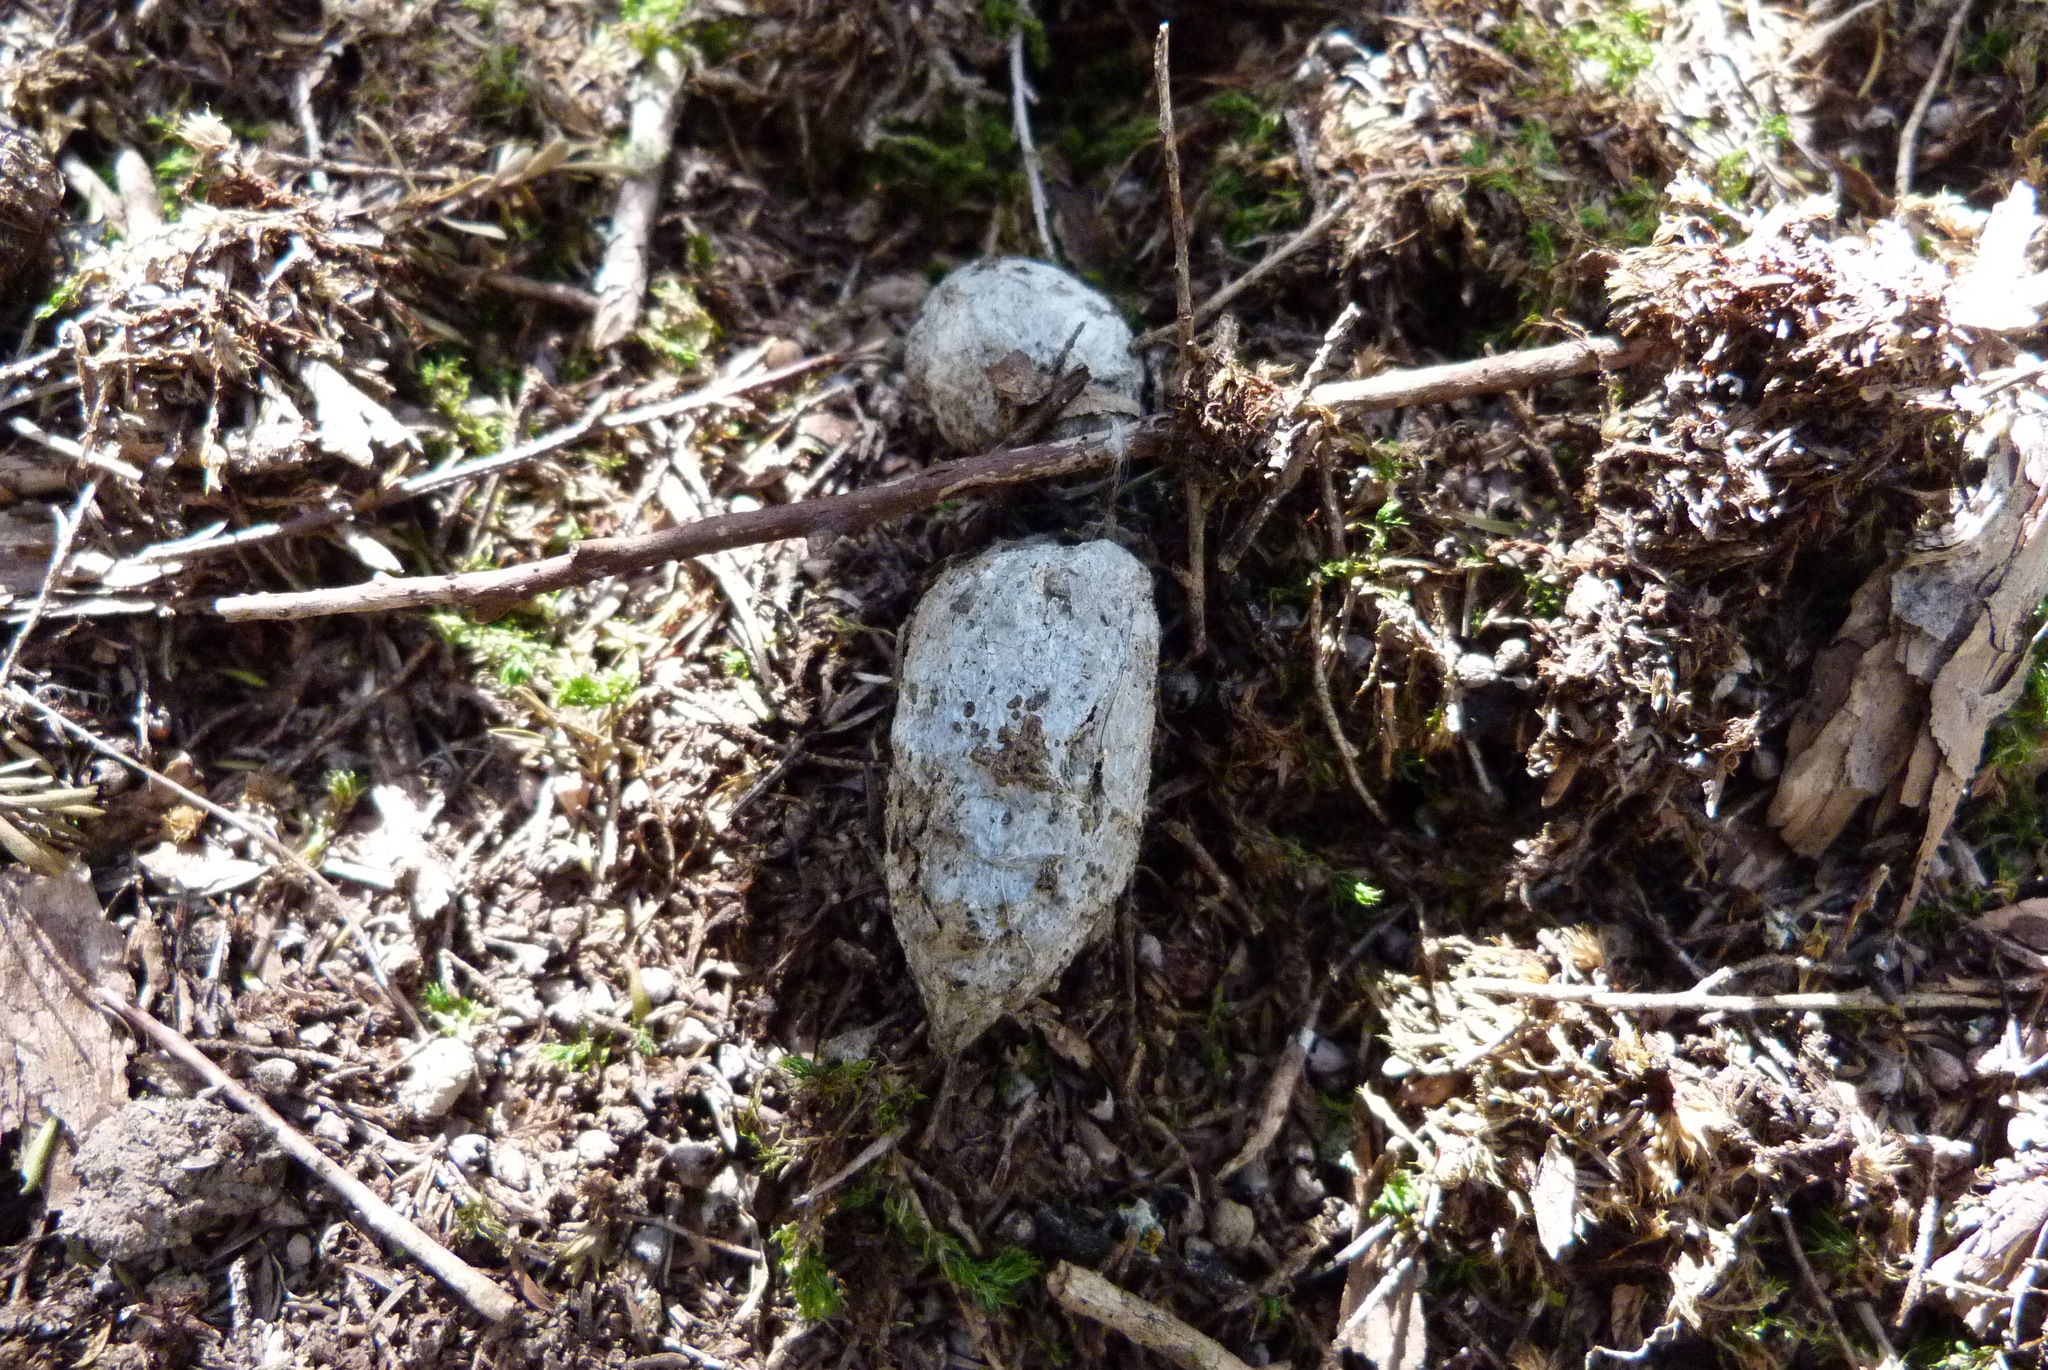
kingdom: Animalia
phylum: Chordata
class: Mammalia
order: Carnivora
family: Felidae
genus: Felis
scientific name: Felis catus
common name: Domestic cat
